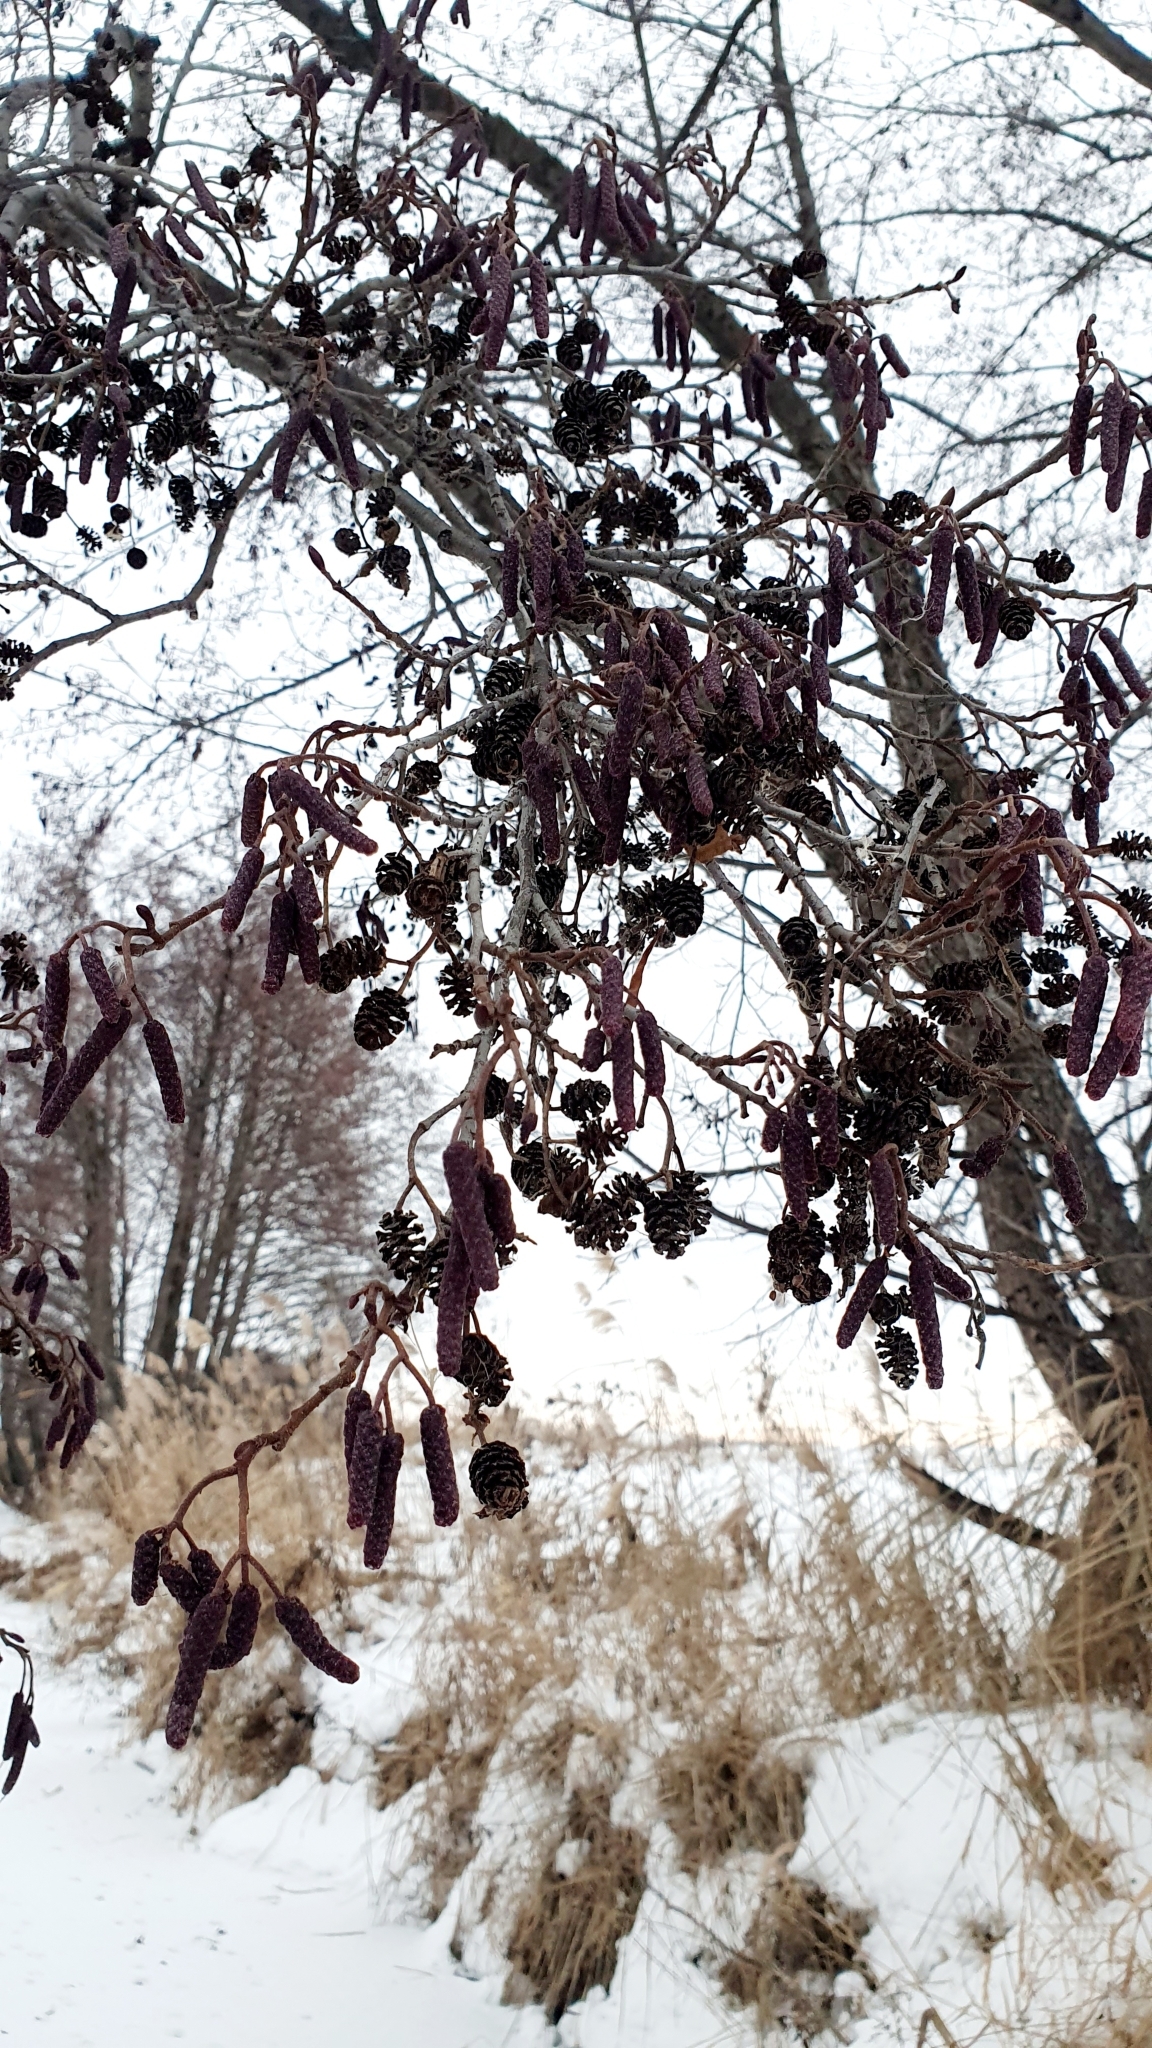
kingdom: Plantae
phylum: Tracheophyta
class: Magnoliopsida
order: Fagales
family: Betulaceae
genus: Alnus
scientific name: Alnus glutinosa
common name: Black alder
